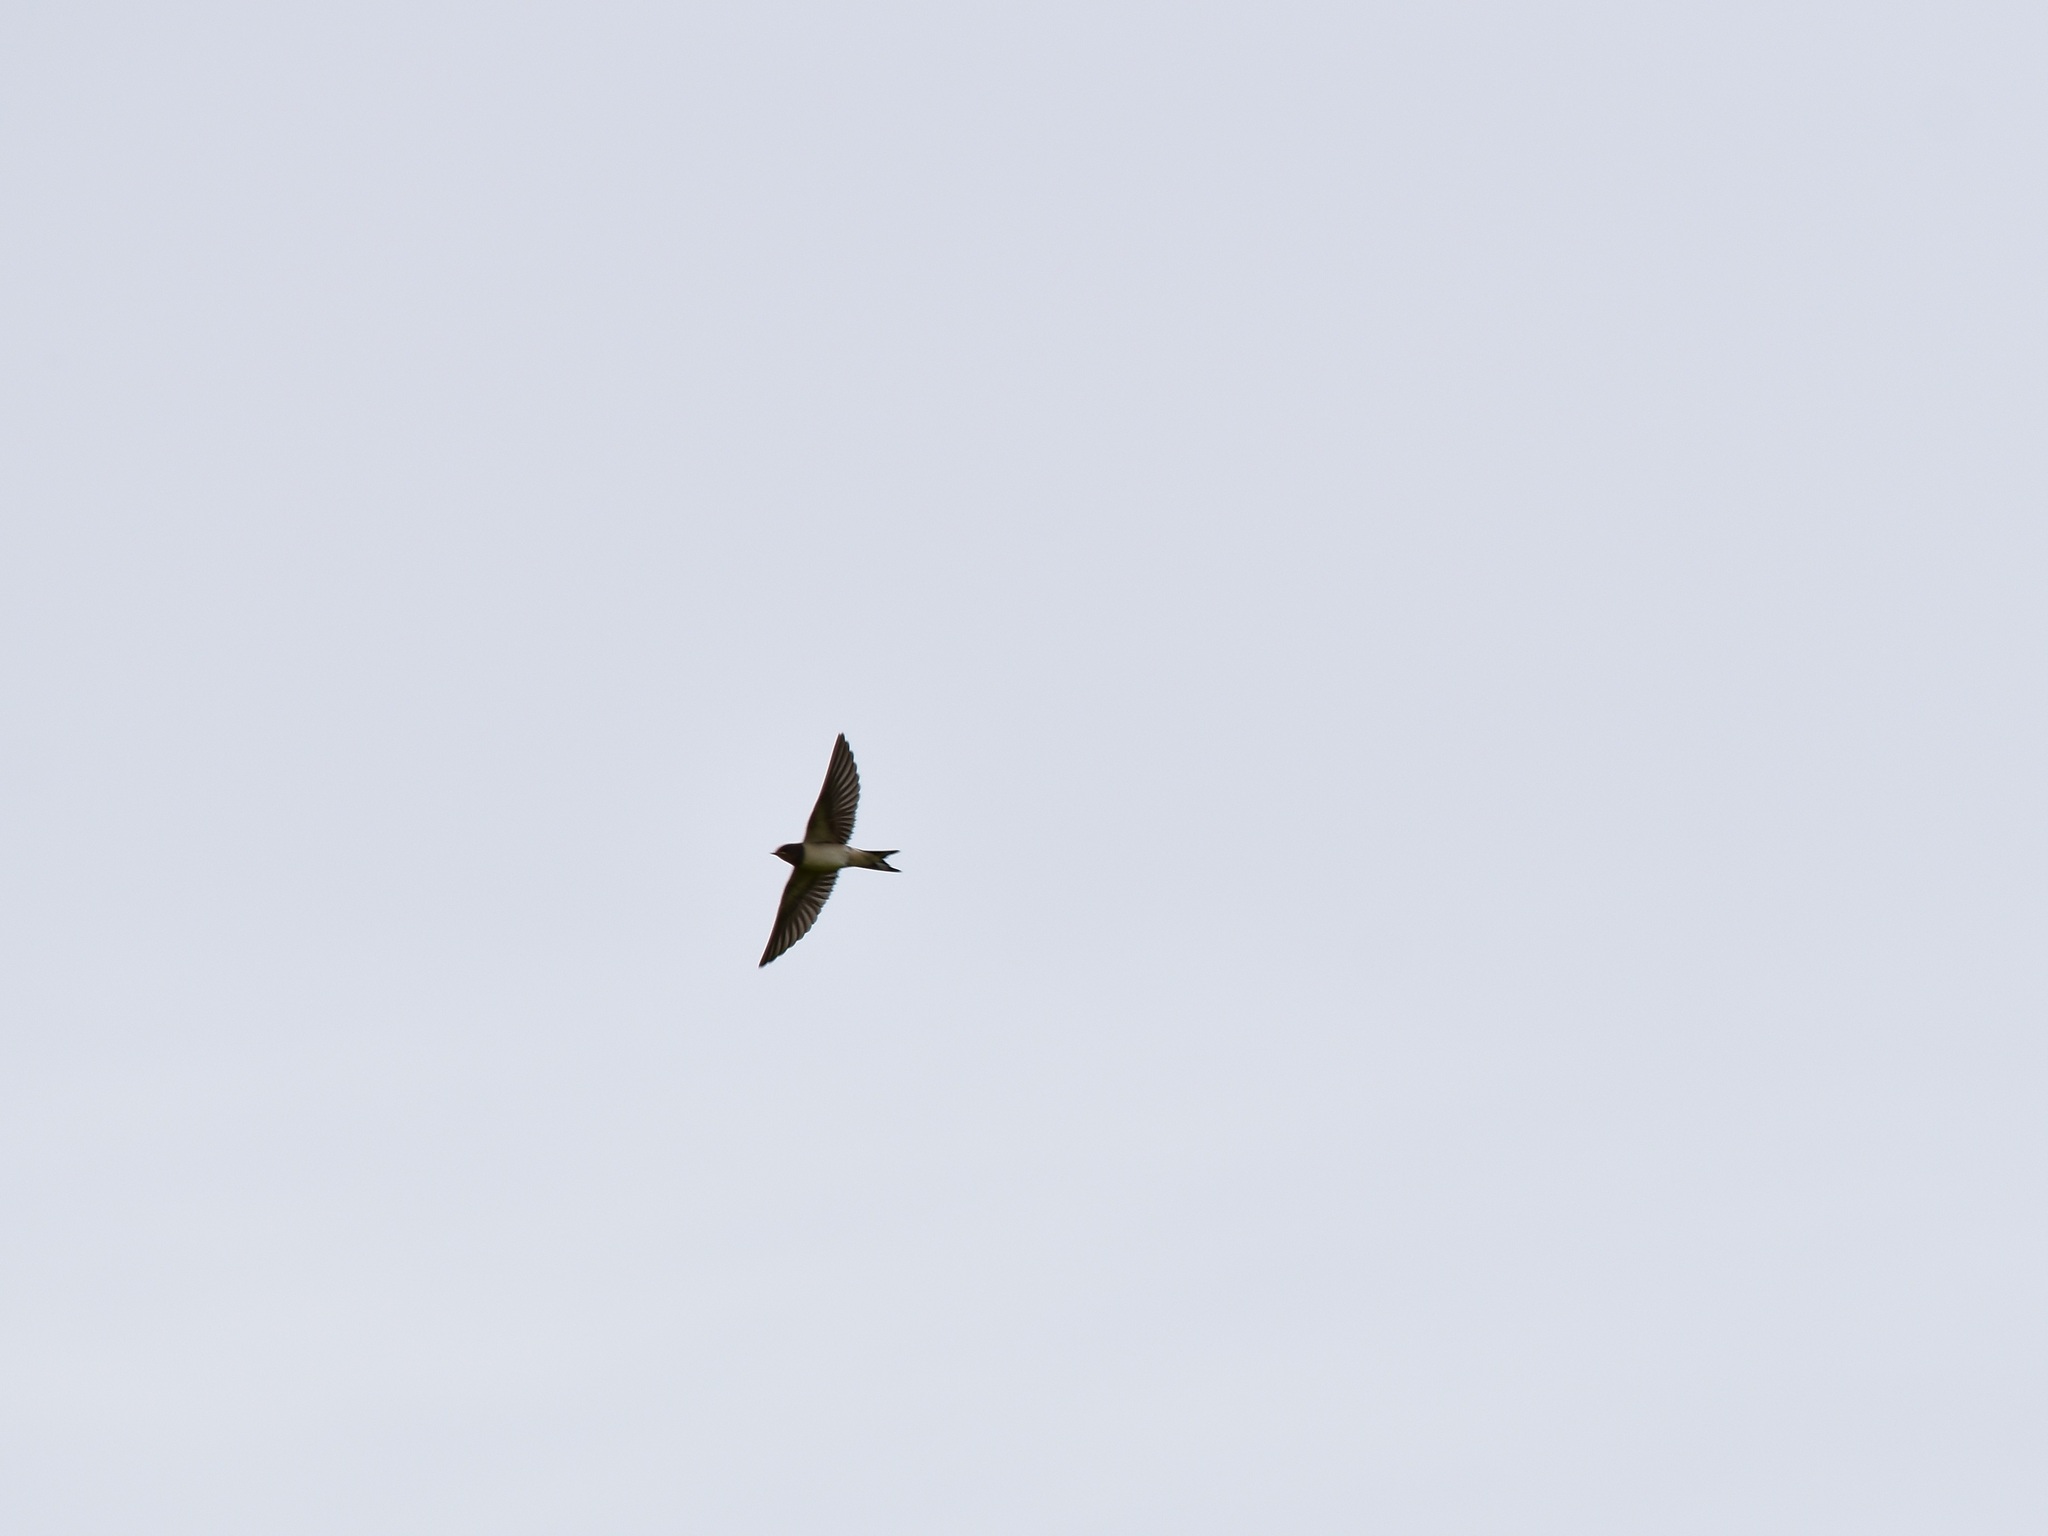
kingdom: Animalia
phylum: Chordata
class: Aves
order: Passeriformes
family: Hirundinidae
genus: Hirundo
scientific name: Hirundo rustica
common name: Barn swallow
